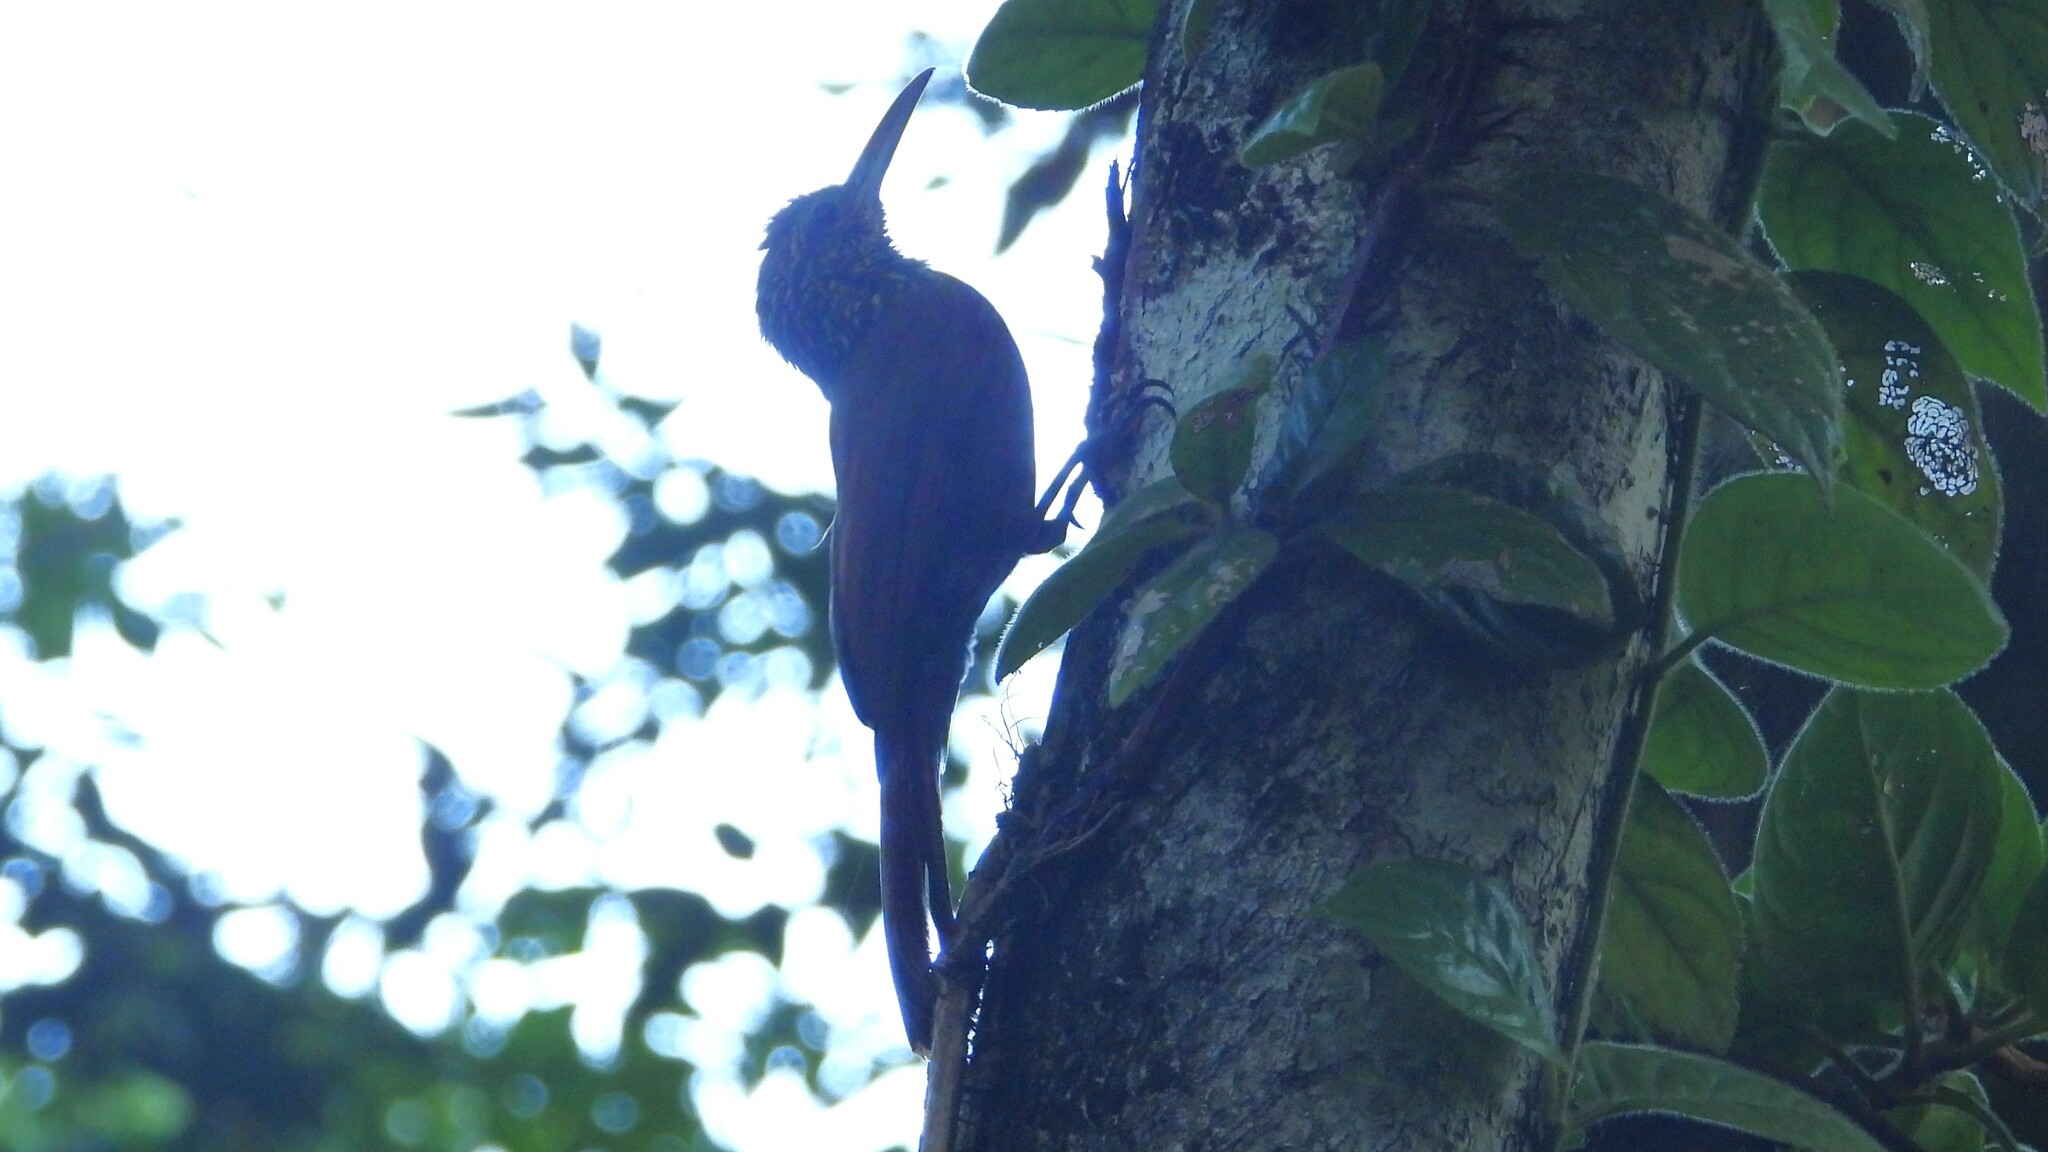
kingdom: Animalia
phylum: Chordata
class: Aves
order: Passeriformes
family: Furnariidae
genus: Xiphorhynchus
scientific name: Xiphorhynchus susurrans
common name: Cocoa woodcreeper
